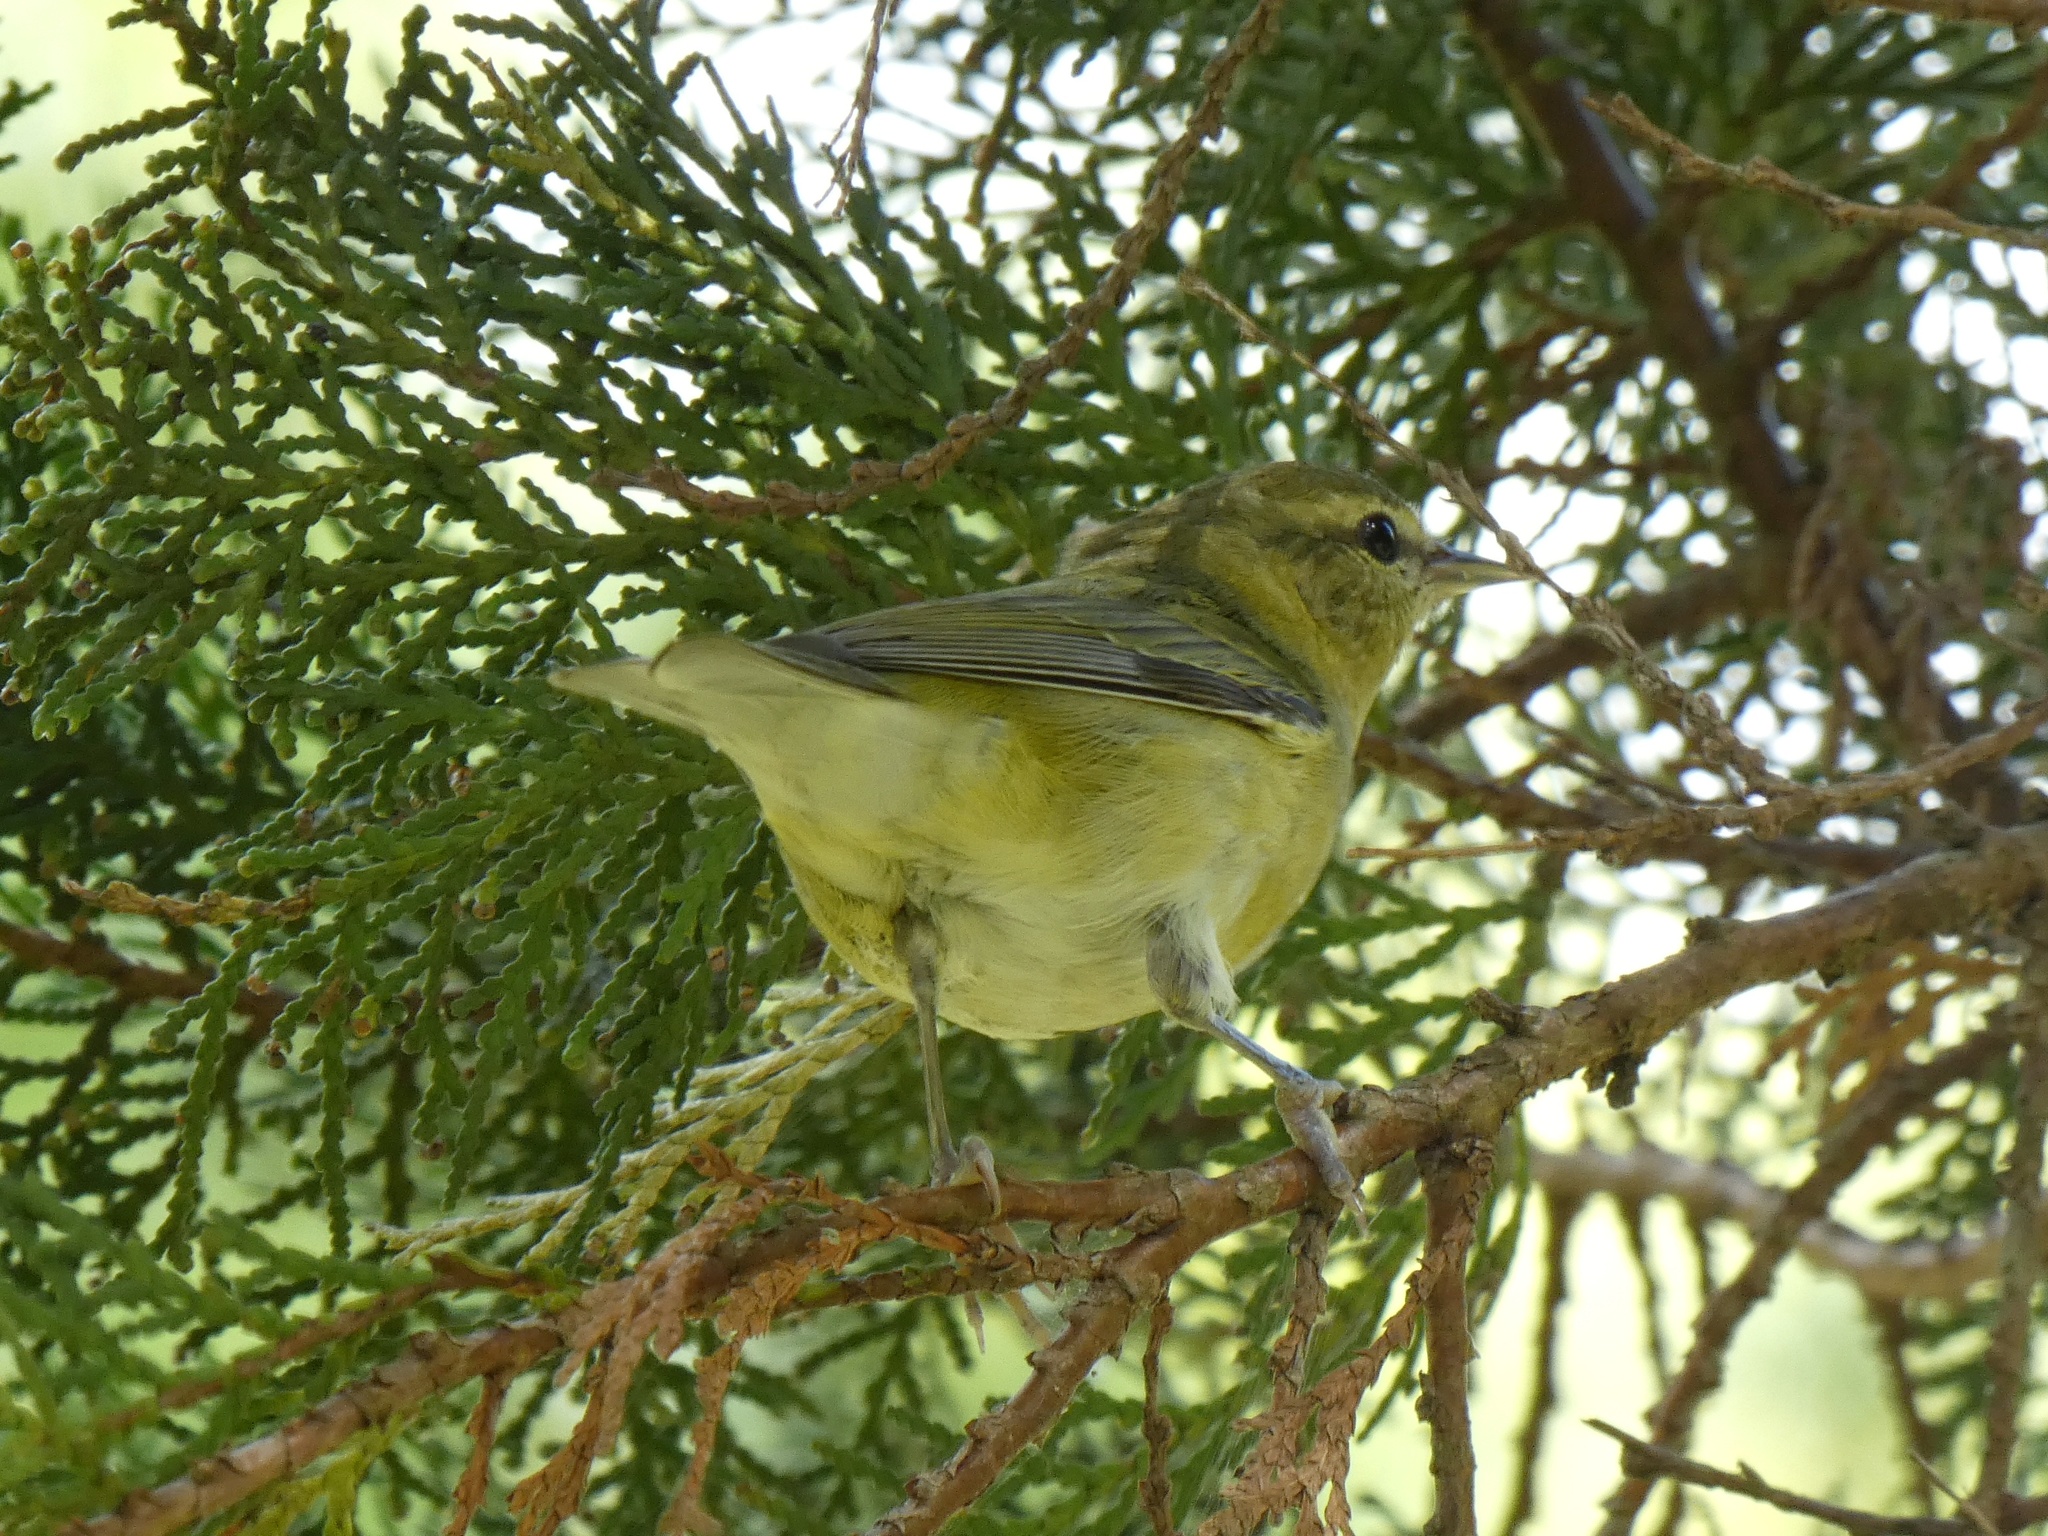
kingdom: Animalia
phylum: Chordata
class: Aves
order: Passeriformes
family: Parulidae
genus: Leiothlypis
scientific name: Leiothlypis peregrina
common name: Tennessee warbler
